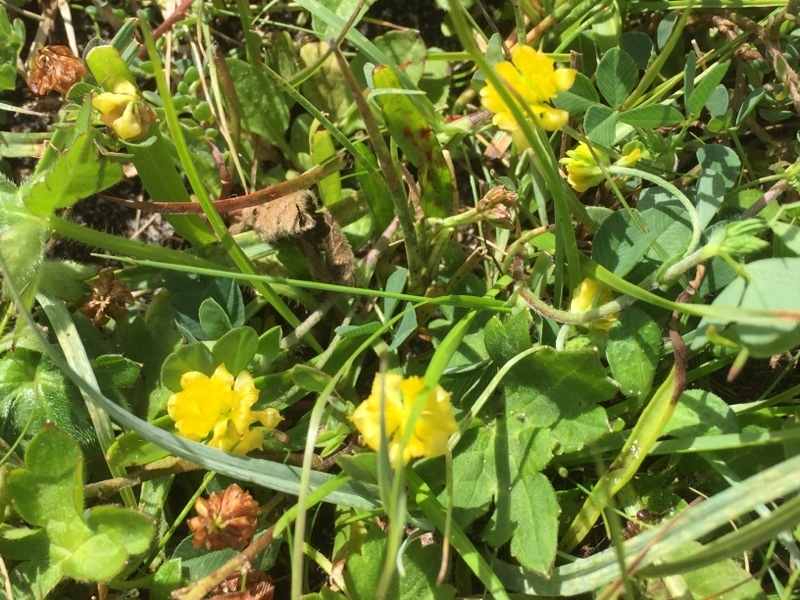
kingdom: Plantae
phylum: Tracheophyta
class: Magnoliopsida
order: Fabales
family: Fabaceae
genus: Trifolium
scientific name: Trifolium campestre
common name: Field clover
